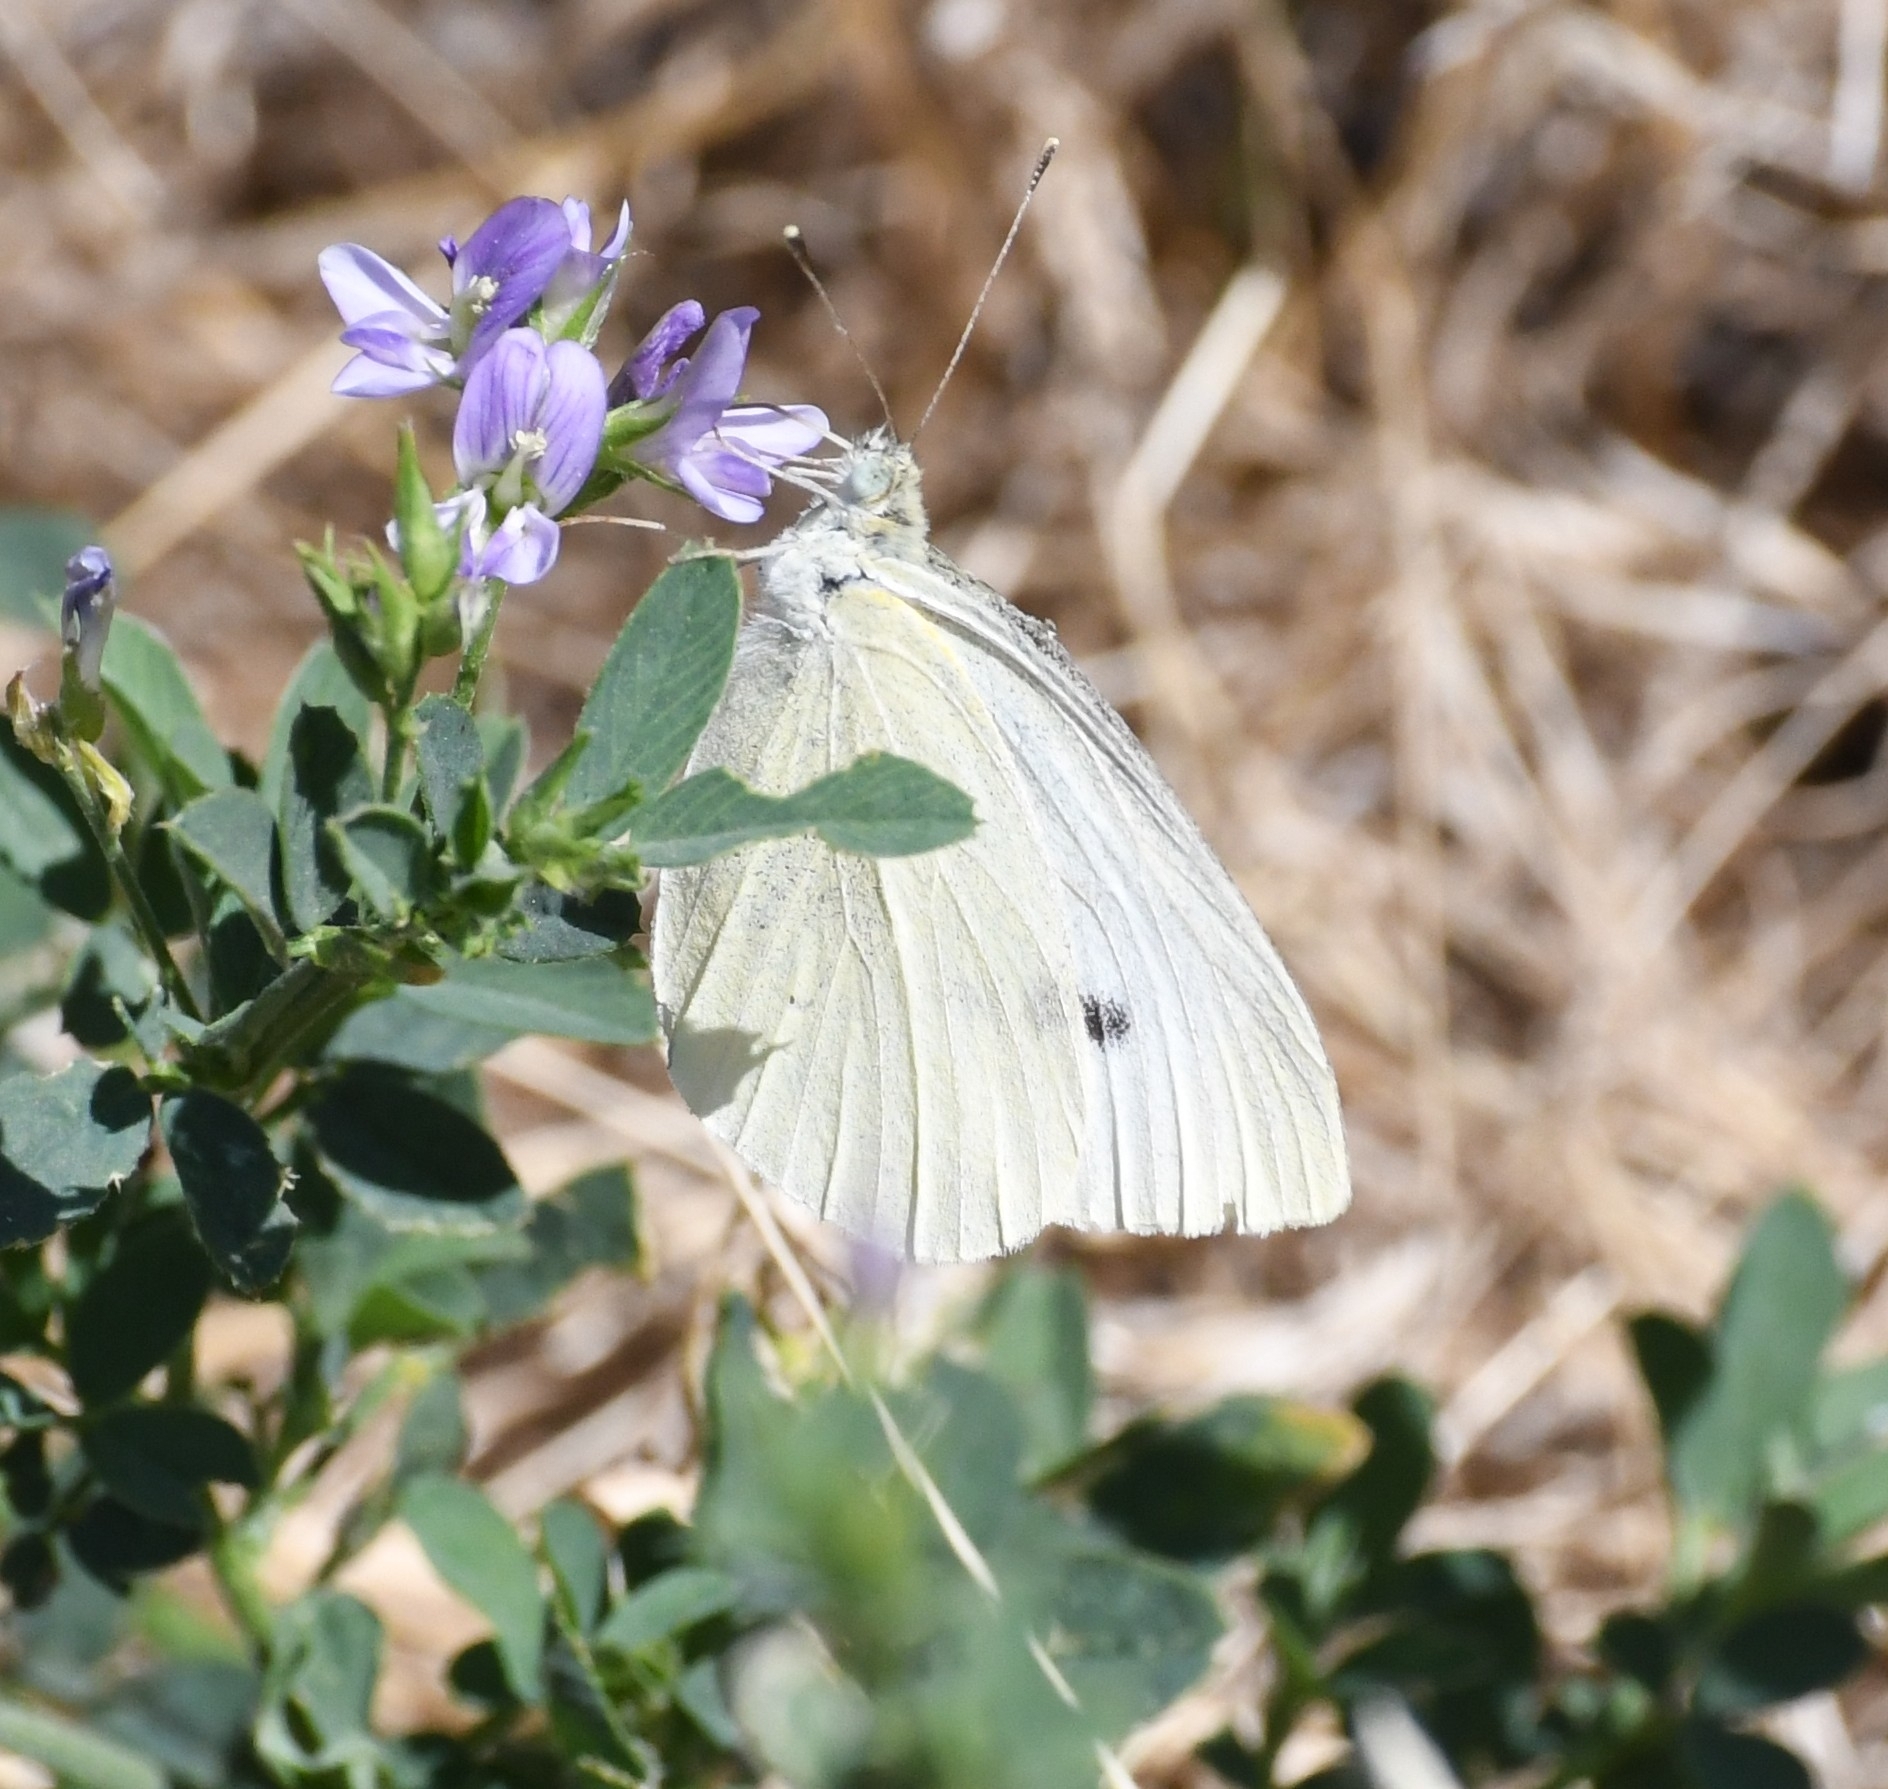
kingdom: Animalia
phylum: Arthropoda
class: Insecta
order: Lepidoptera
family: Pieridae
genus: Pieris
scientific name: Pieris rapae
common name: Small white
